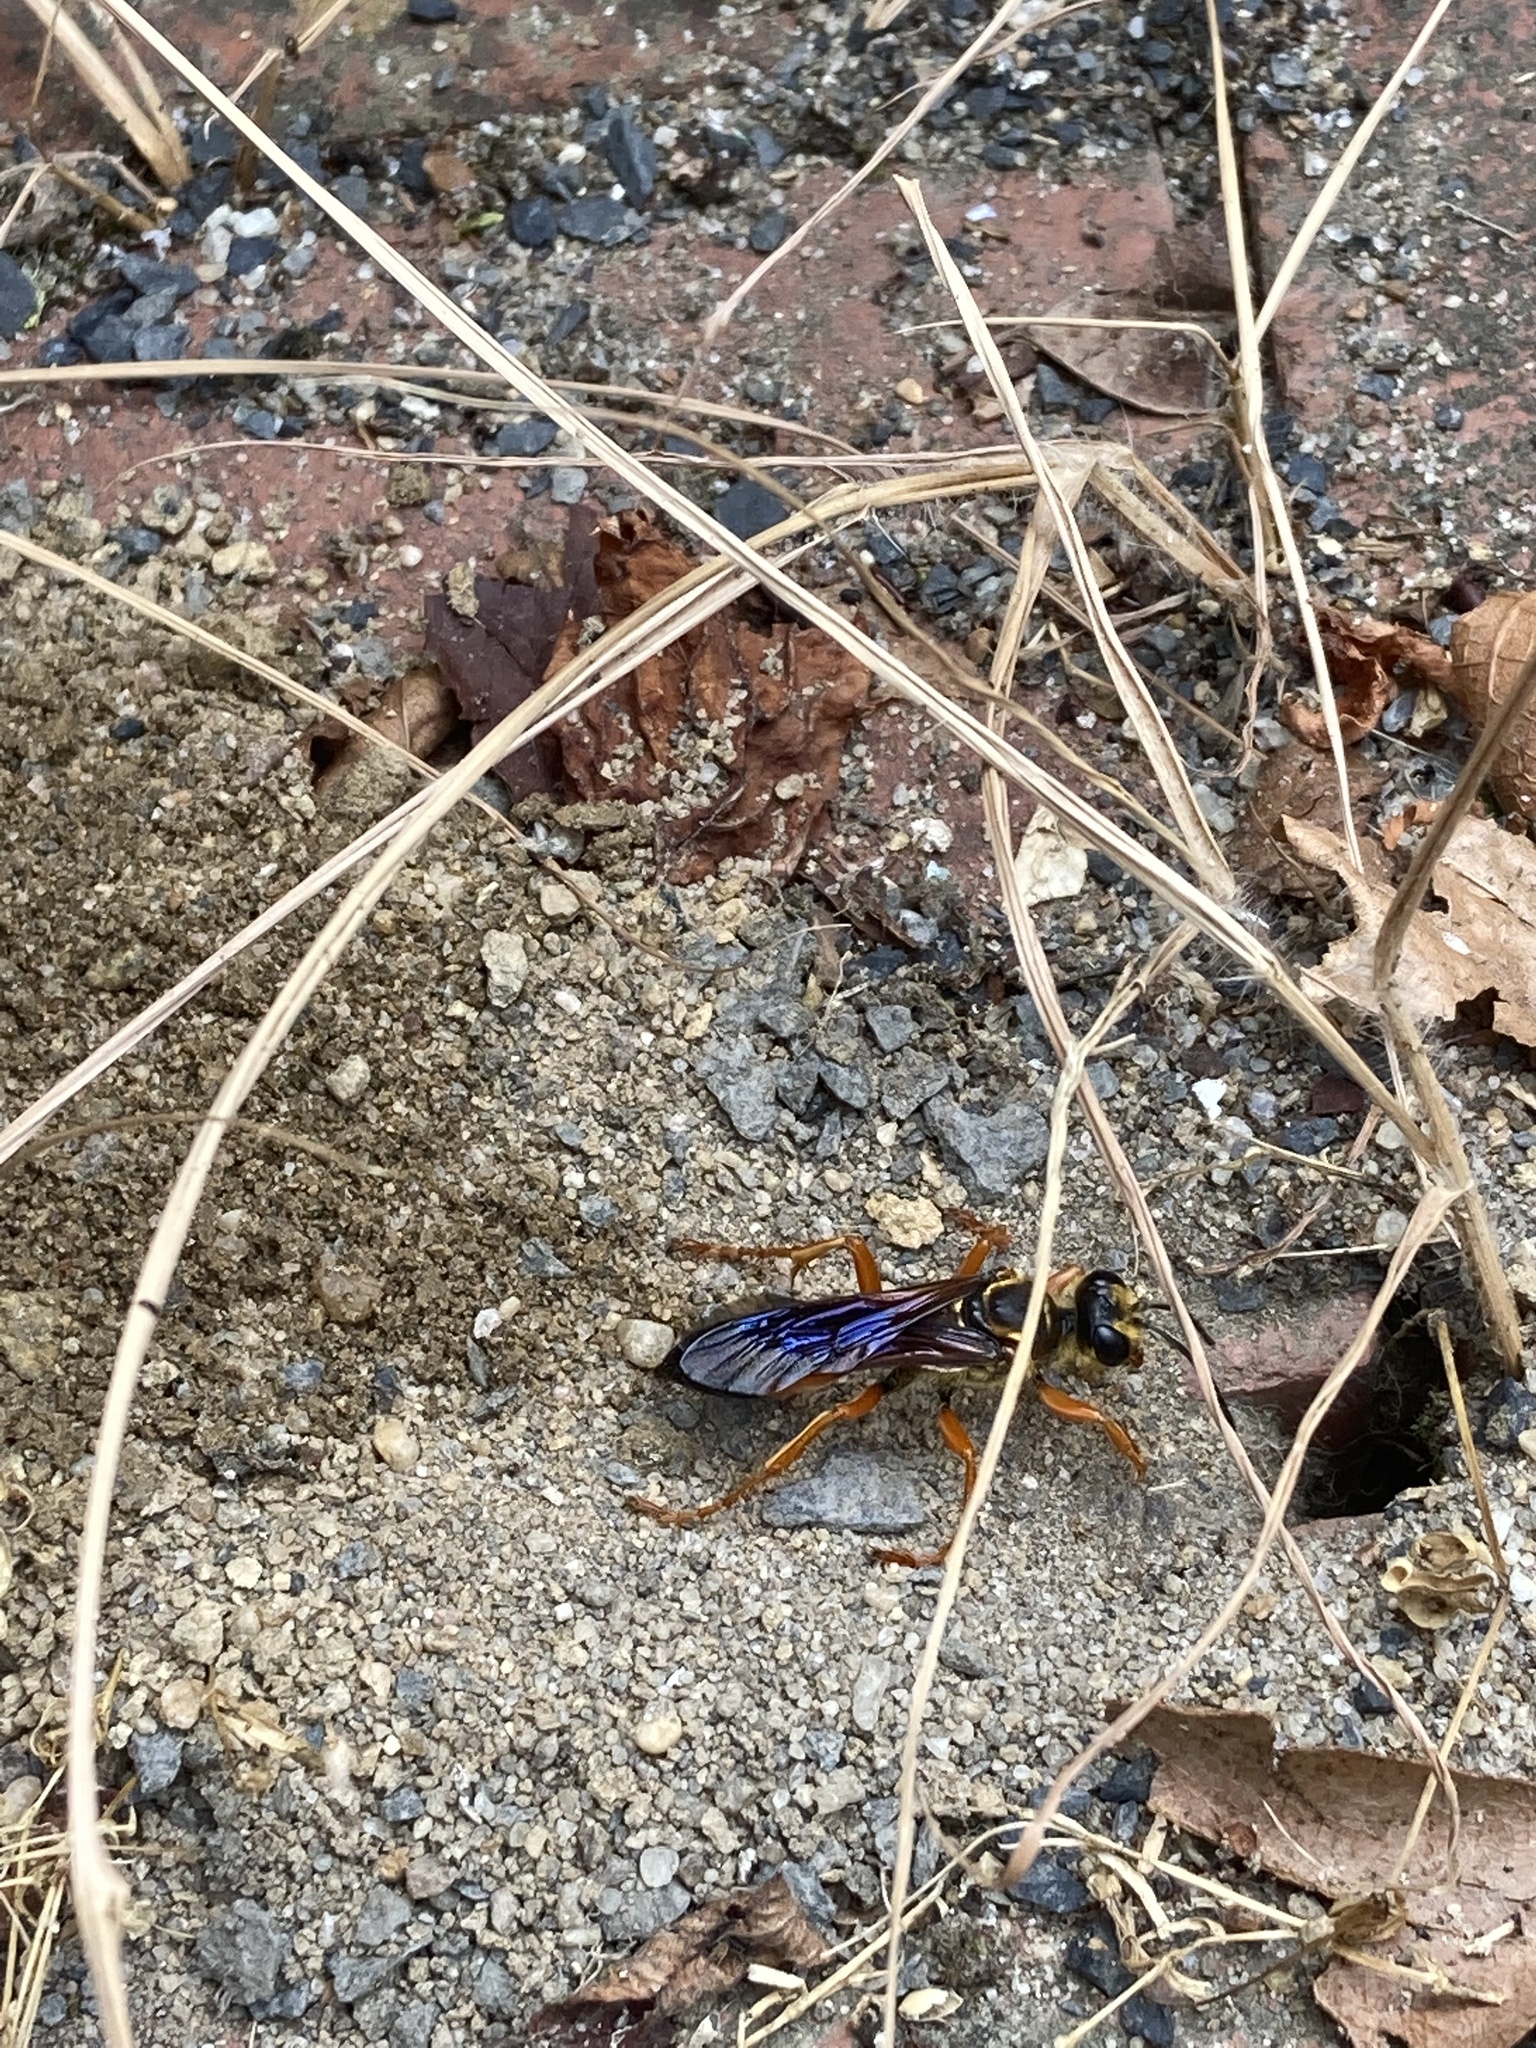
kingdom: Animalia
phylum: Arthropoda
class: Insecta
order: Hymenoptera
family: Sphecidae
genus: Sphex
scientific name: Sphex ichneumoneus
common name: Great golden digger wasp
